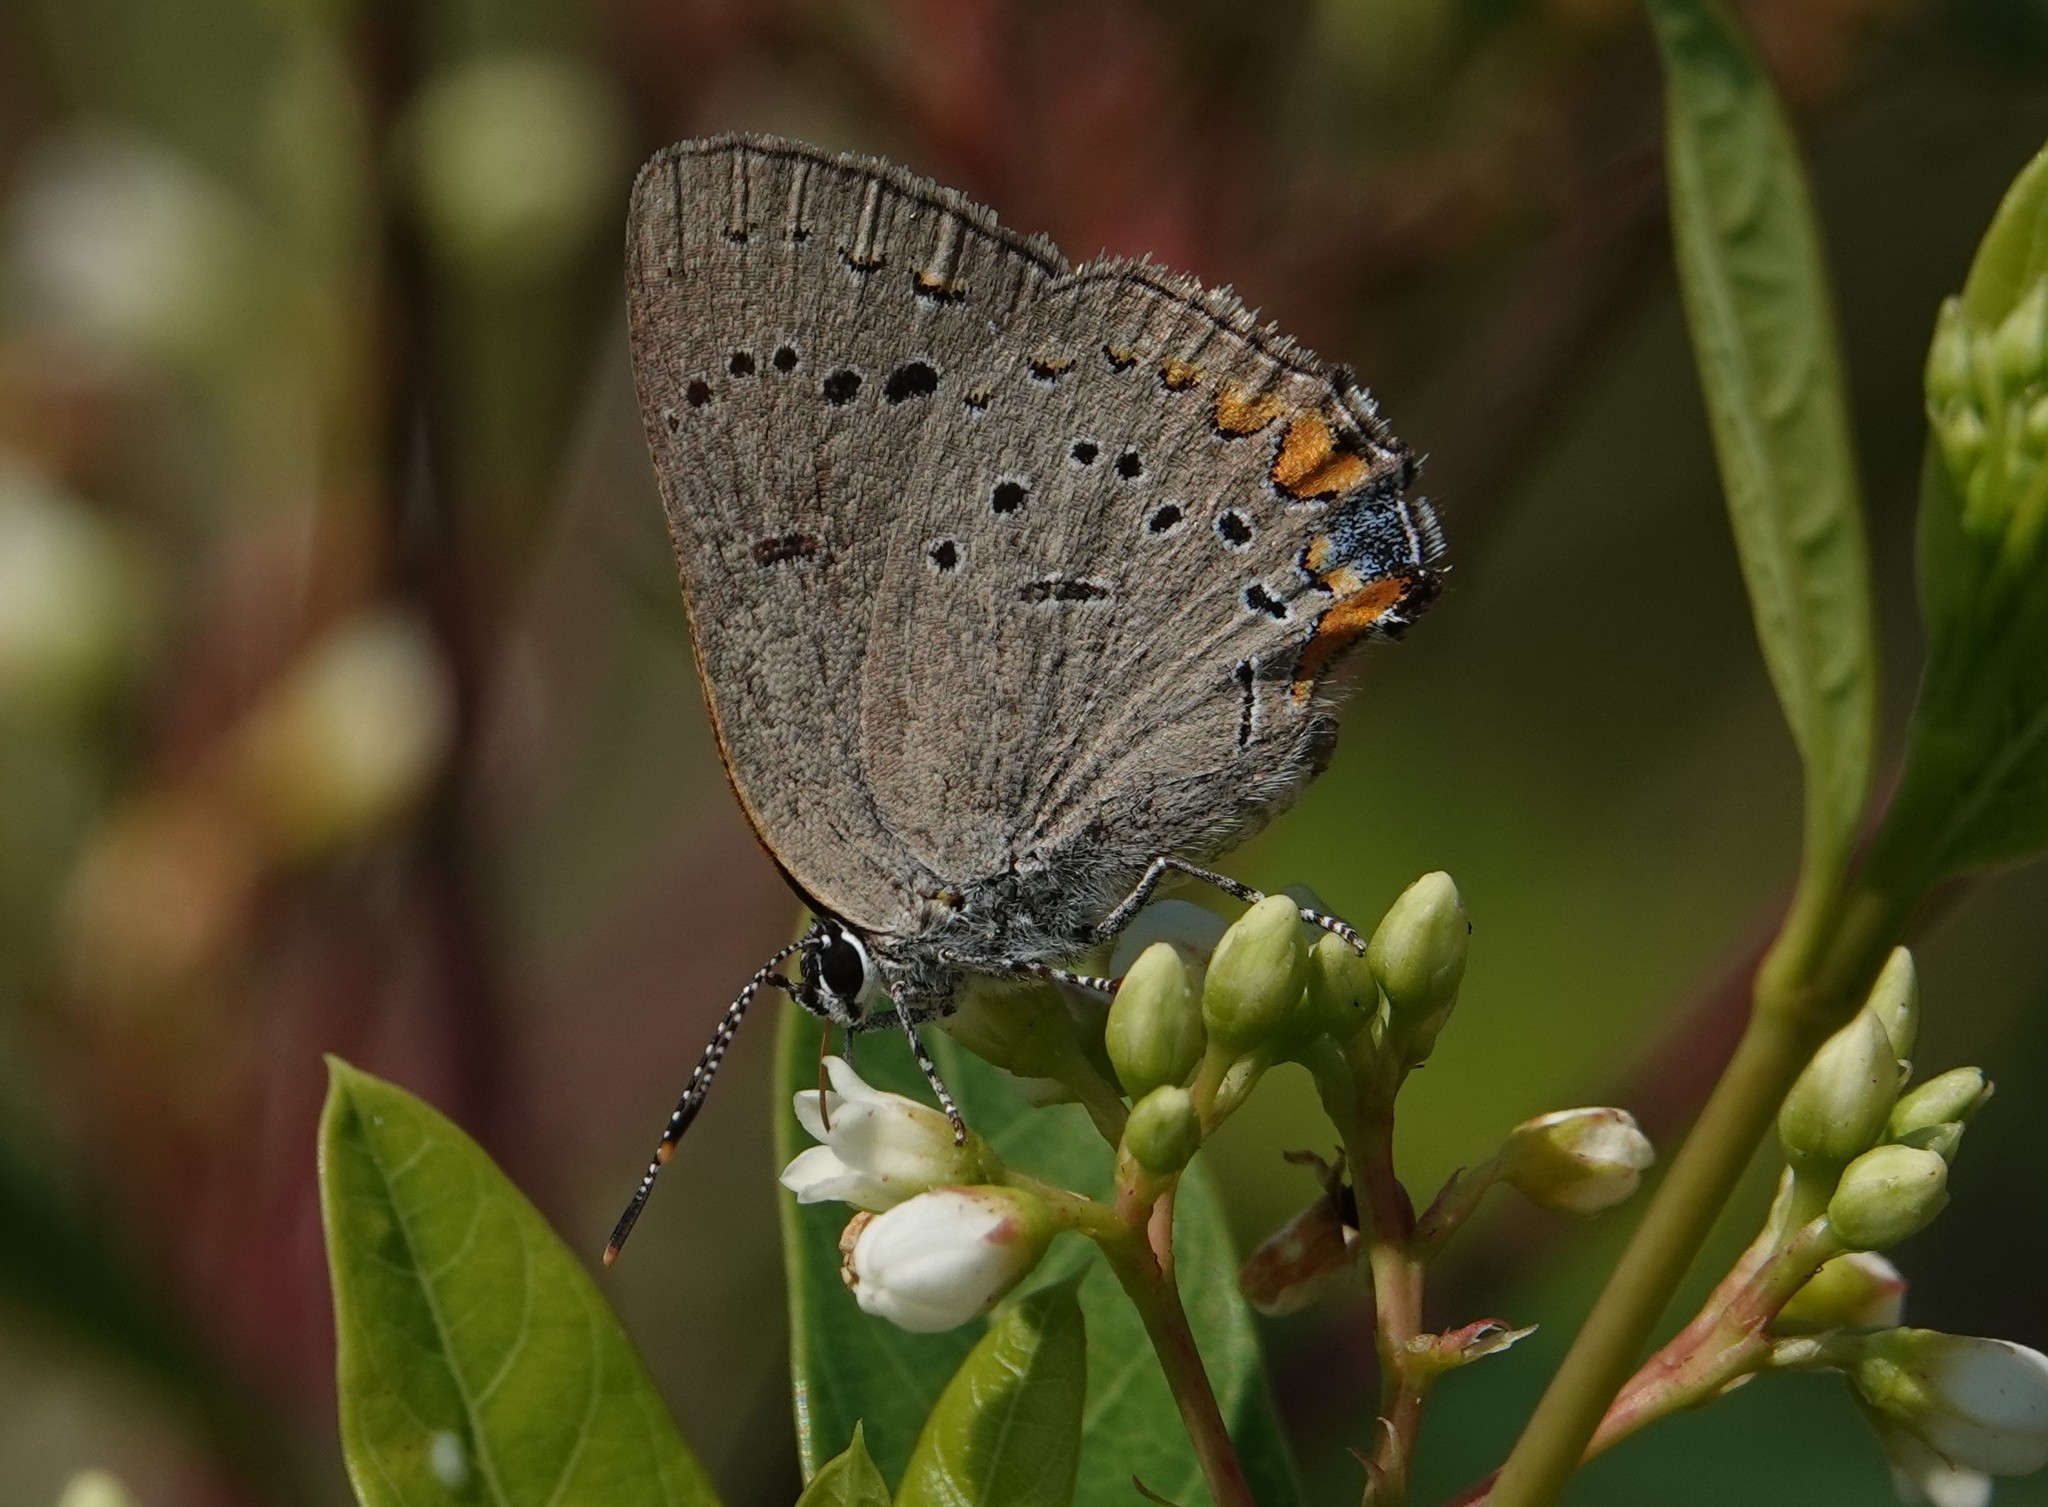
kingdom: Animalia
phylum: Arthropoda
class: Insecta
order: Lepidoptera
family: Lycaenidae
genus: Strymon
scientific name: Strymon acadica
